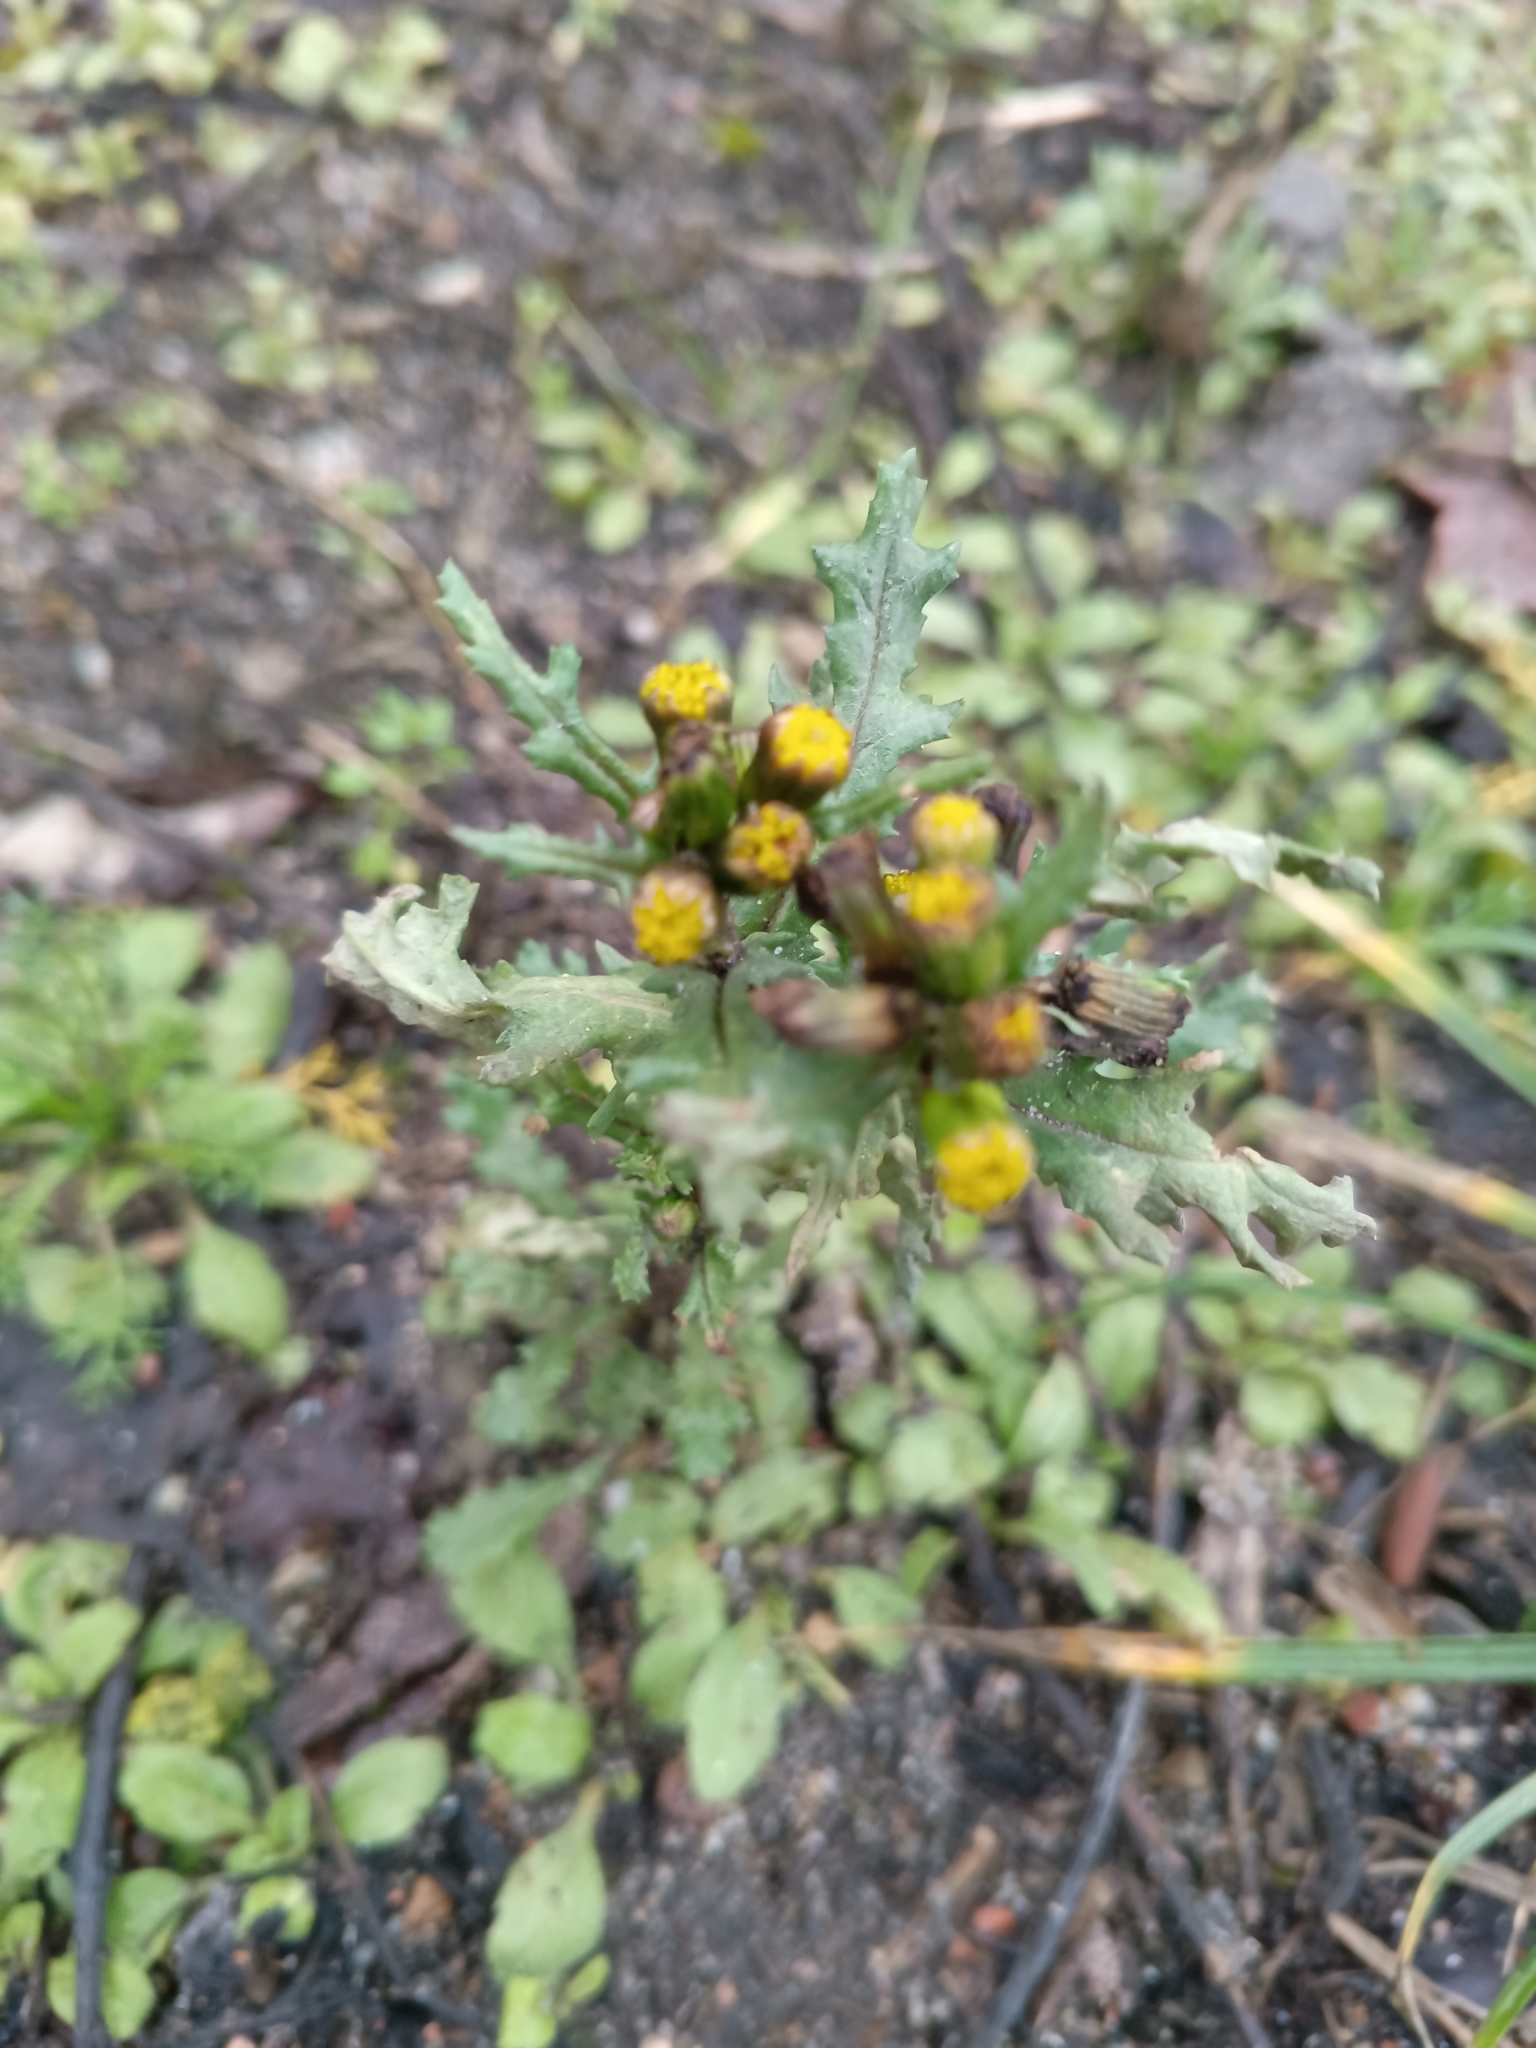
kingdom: Plantae
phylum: Tracheophyta
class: Magnoliopsida
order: Asterales
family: Asteraceae
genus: Senecio
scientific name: Senecio vulgaris
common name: Old-man-in-the-spring
